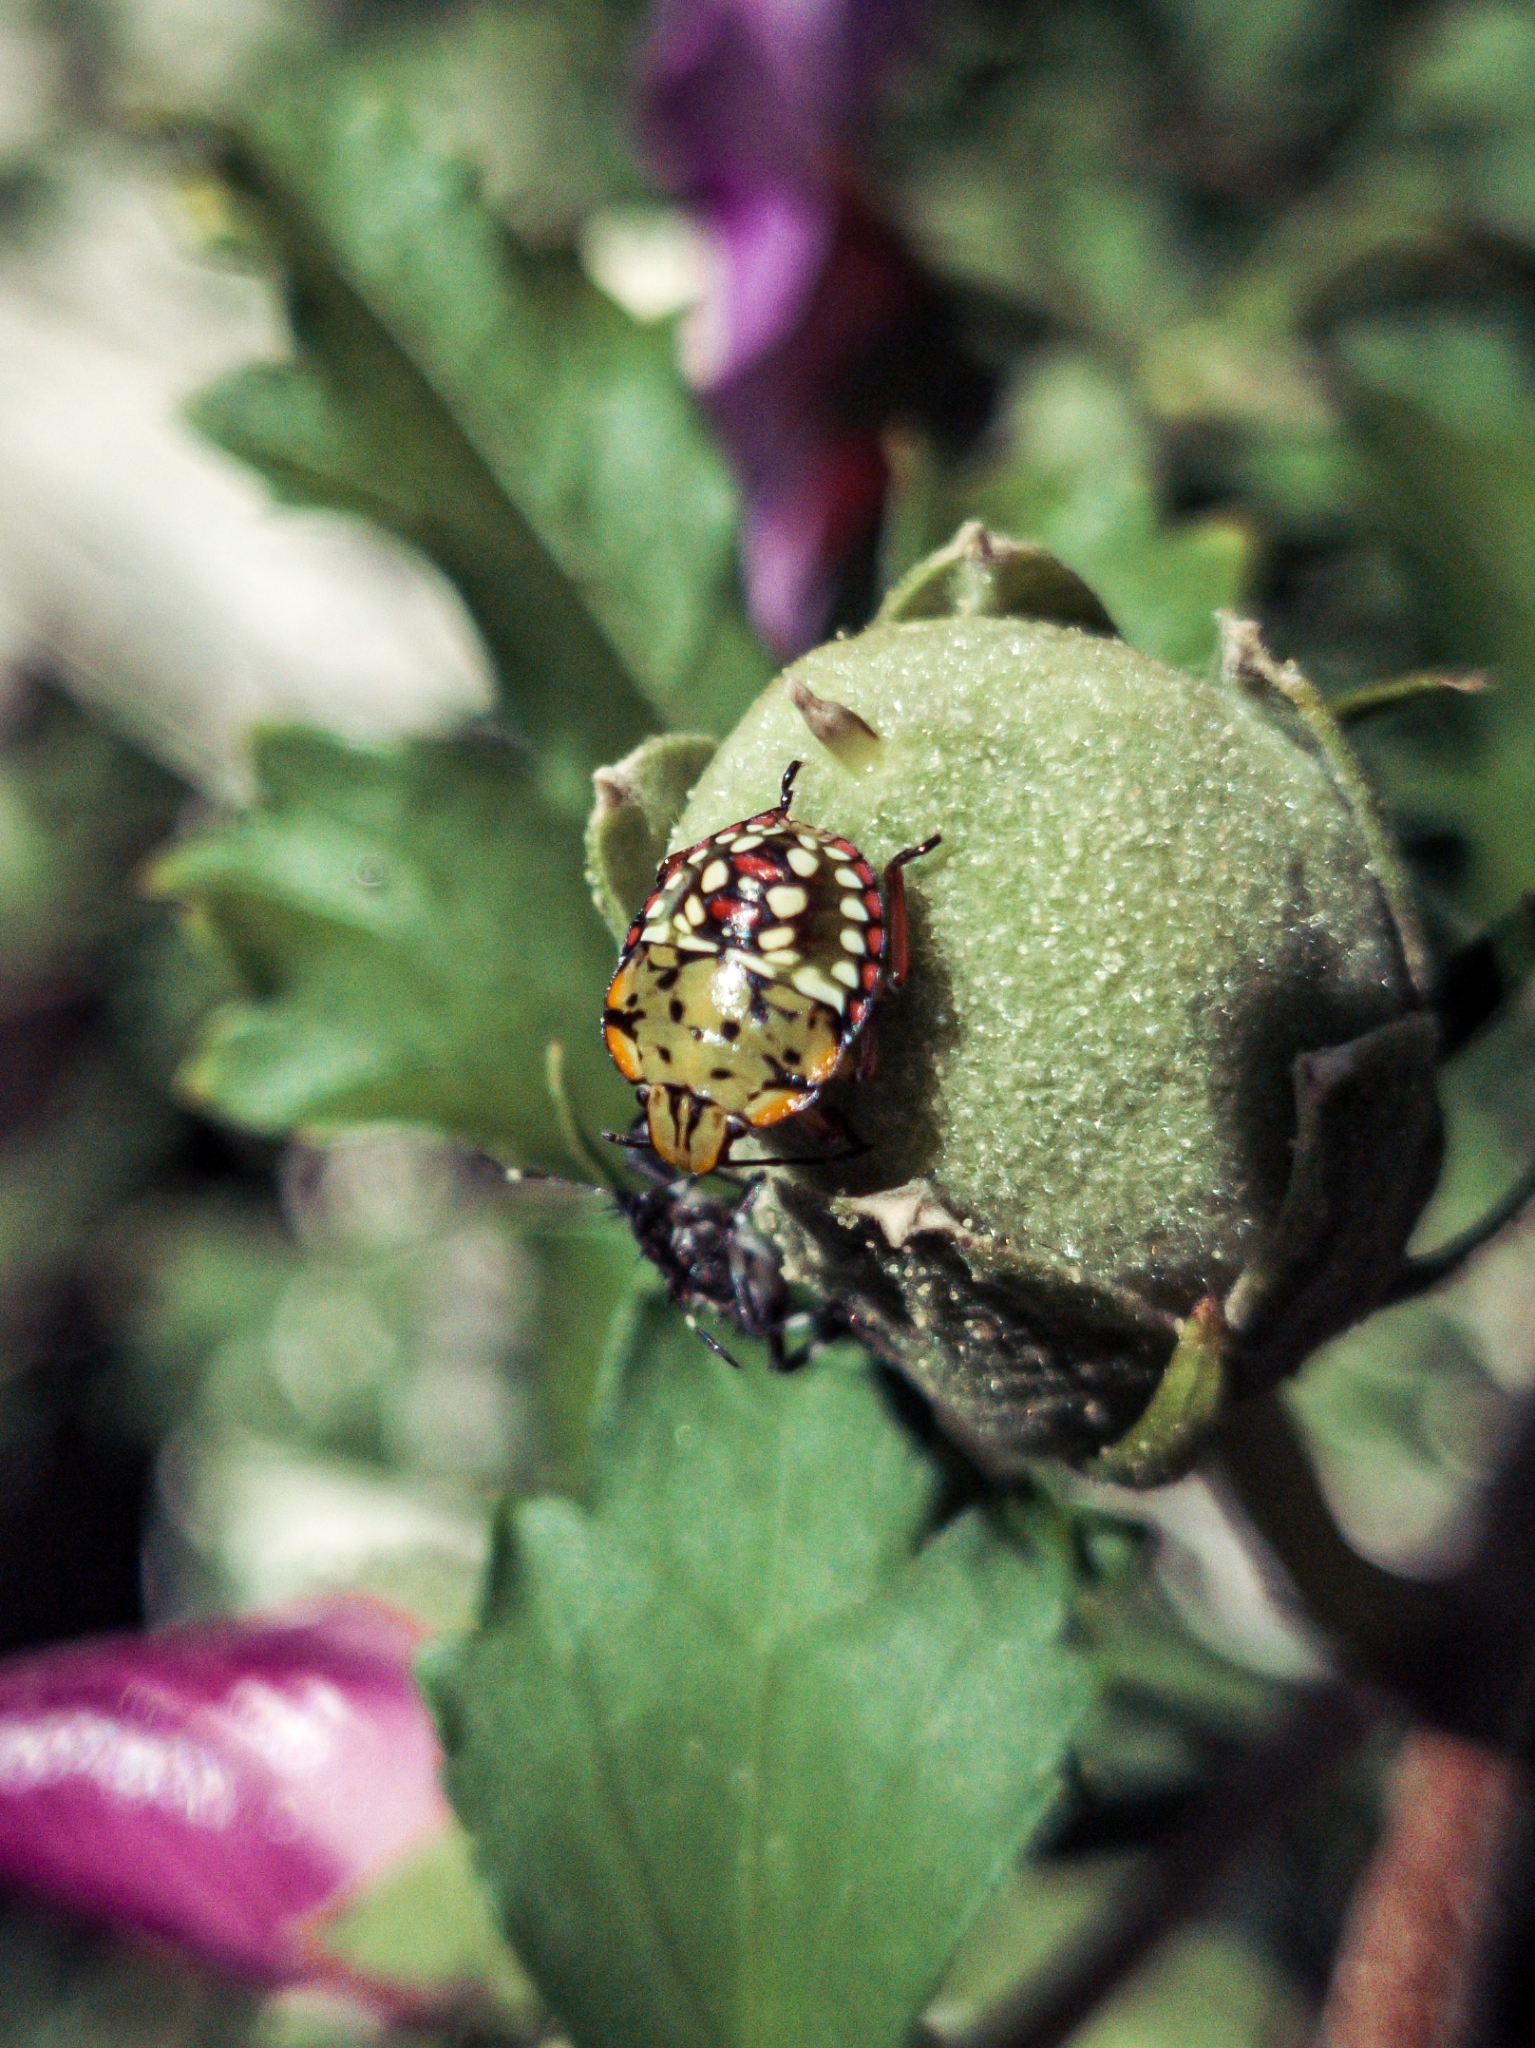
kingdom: Animalia
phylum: Arthropoda
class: Insecta
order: Hemiptera
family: Pentatomidae
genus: Nezara
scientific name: Nezara viridula
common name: Southern green stink bug
